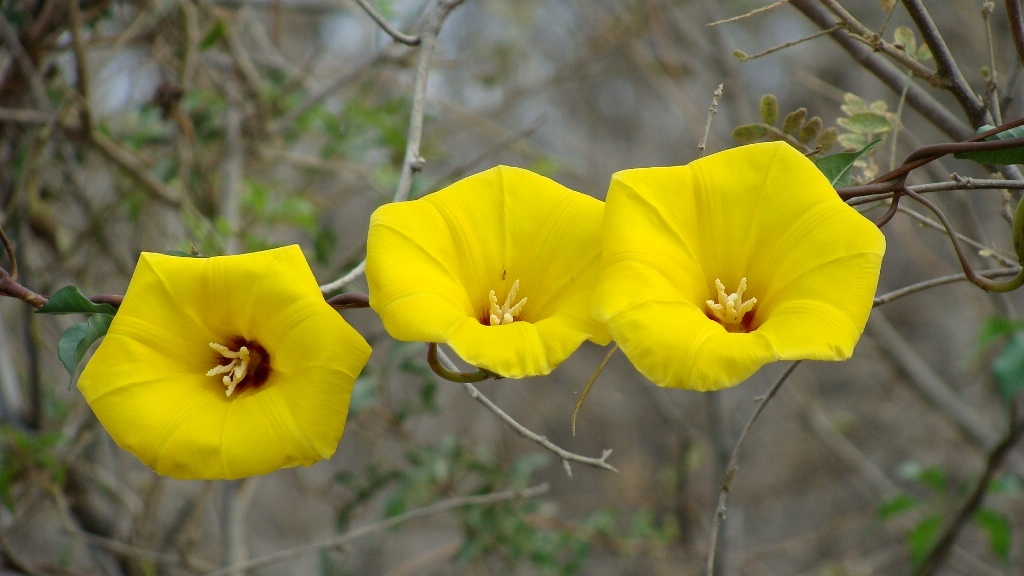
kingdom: Plantae
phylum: Tracheophyta
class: Magnoliopsida
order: Solanales
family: Convolvulaceae
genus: Distimake
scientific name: Distimake aureus
